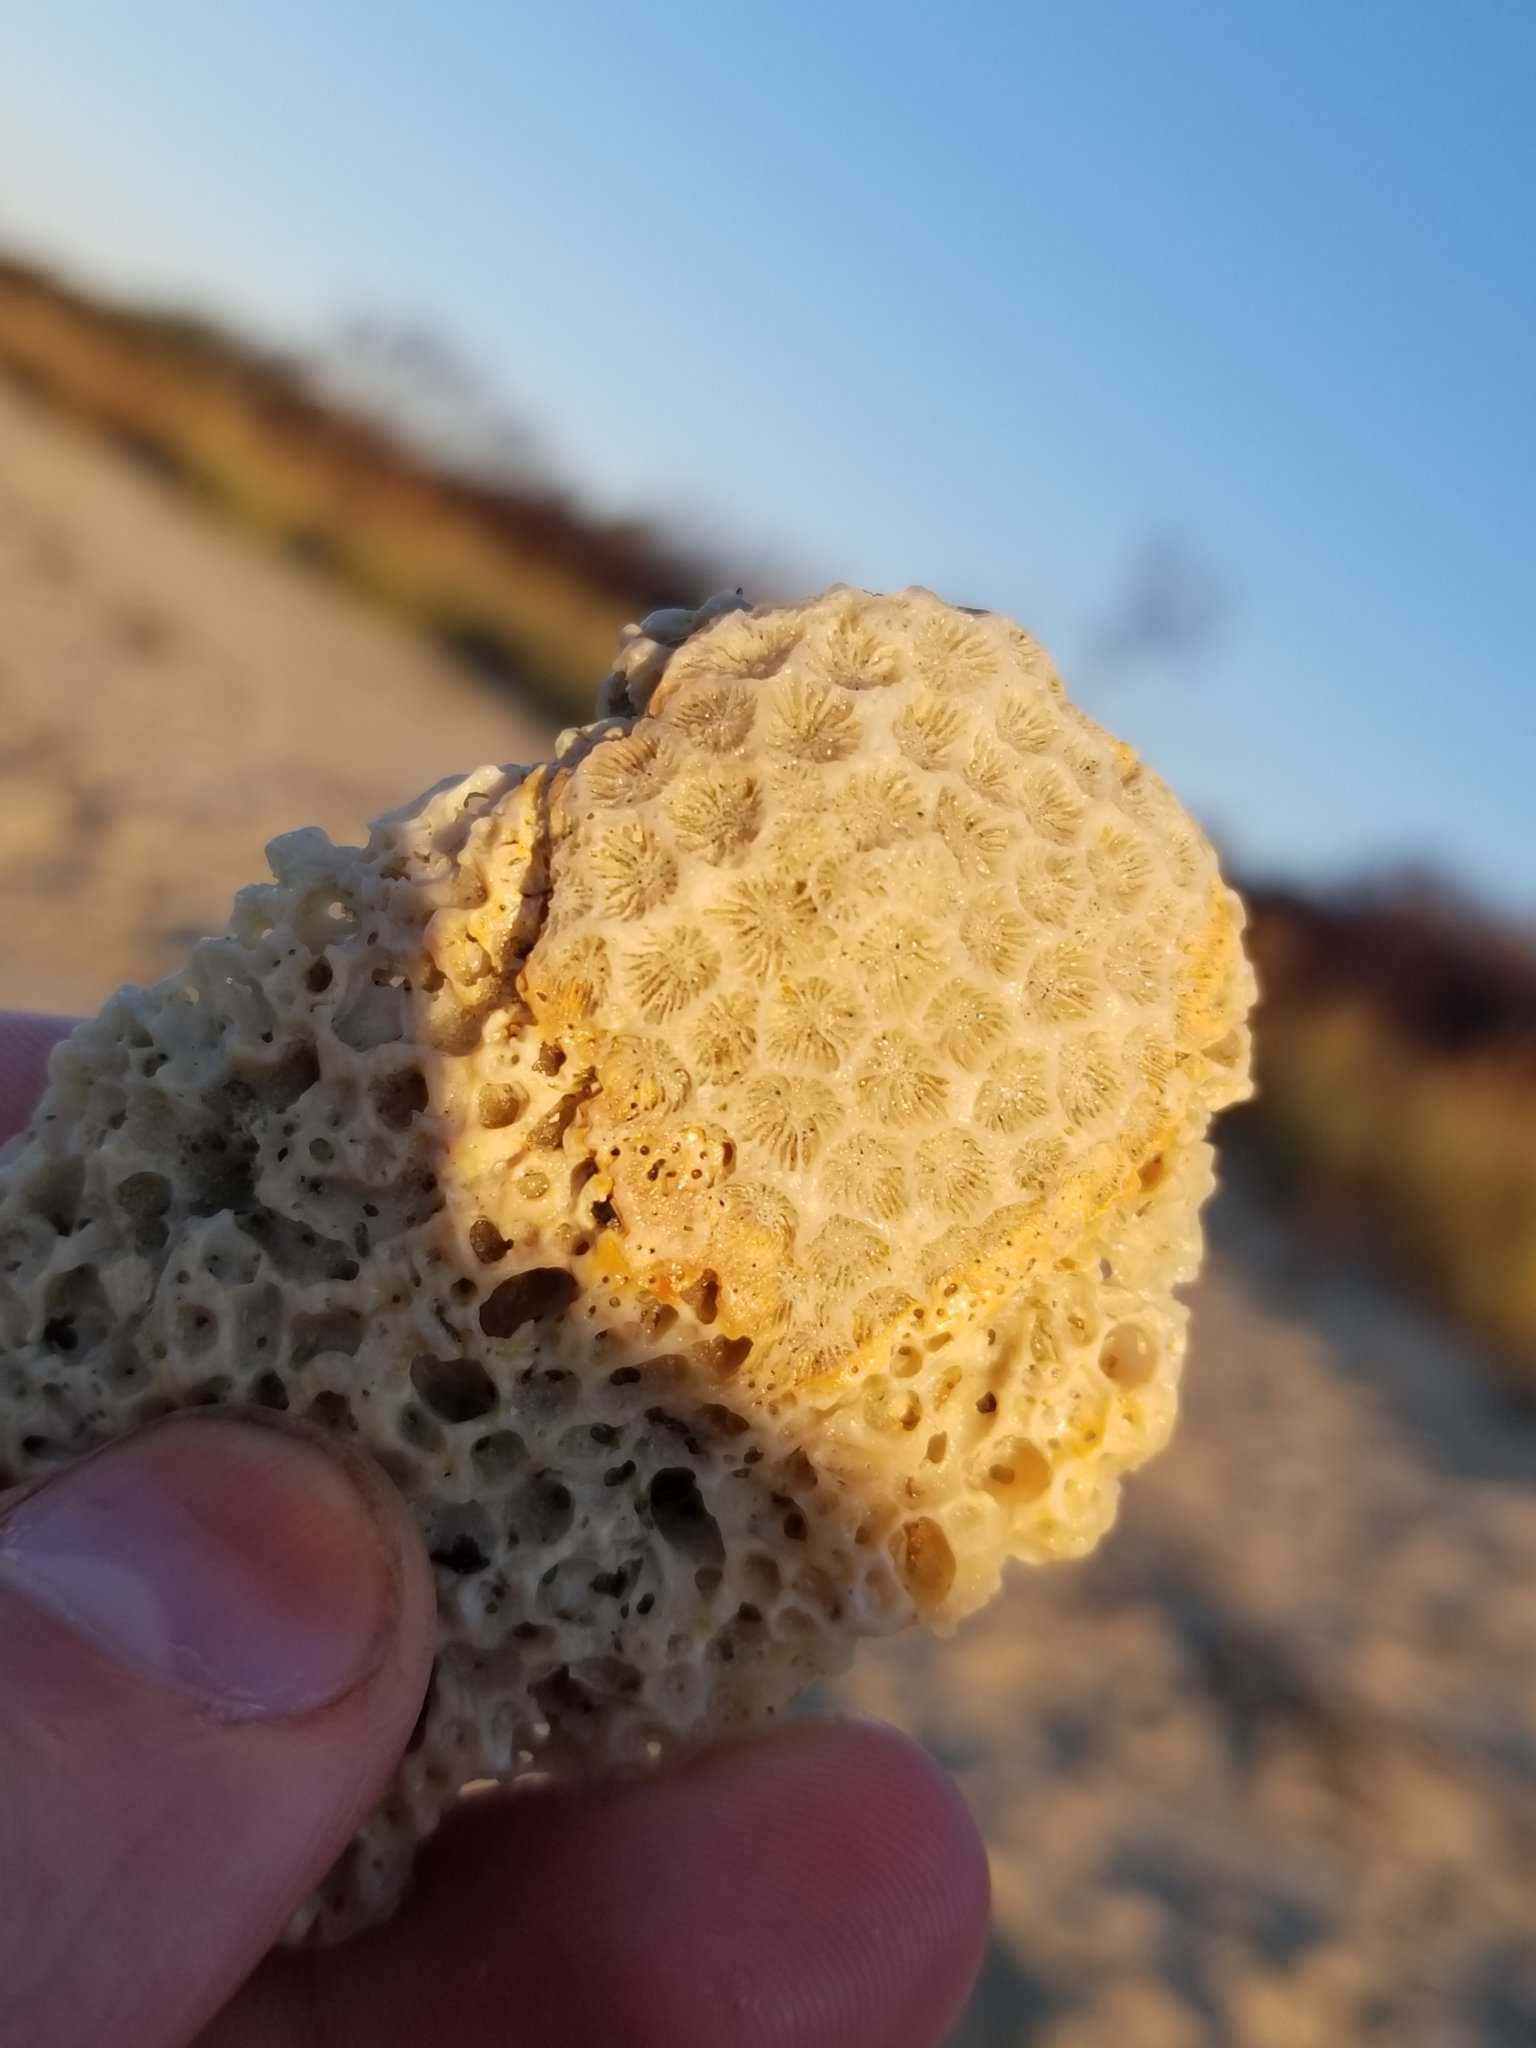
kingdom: Animalia
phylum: Cnidaria
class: Anthozoa
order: Scleractinia
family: Astrangiidae
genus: Astrangia
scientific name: Astrangia poculata
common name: Northern star coral
